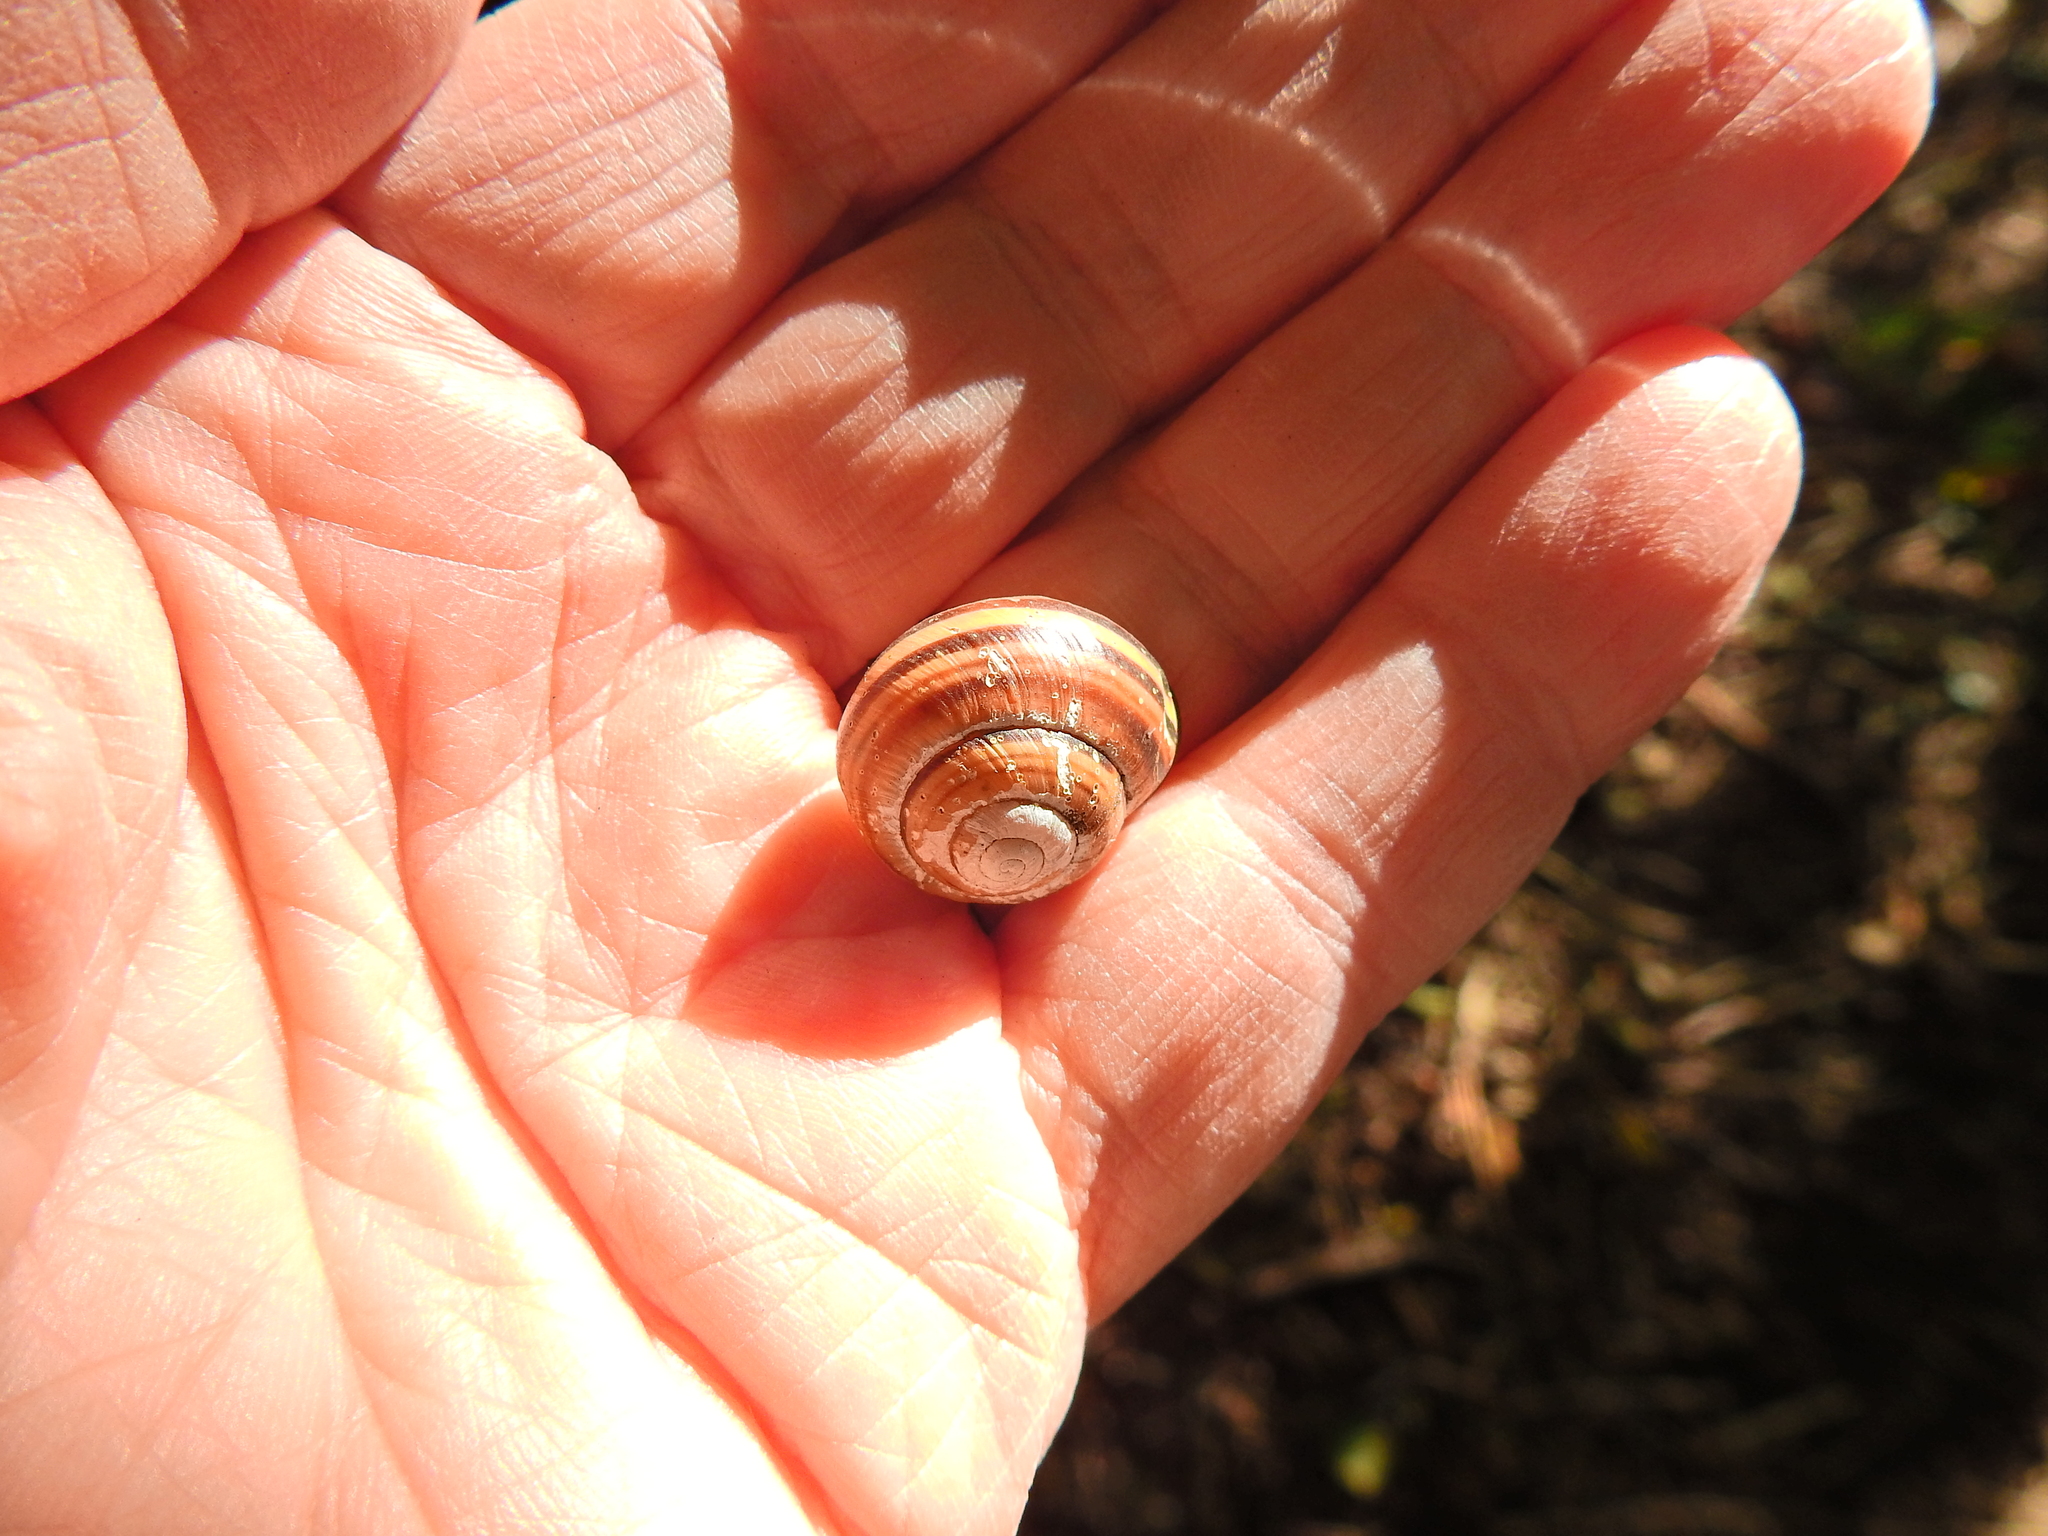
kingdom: Animalia
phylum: Mollusca
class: Gastropoda
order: Stylommatophora
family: Helicidae
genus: Cepaea
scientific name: Cepaea nemoralis
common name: Grovesnail
